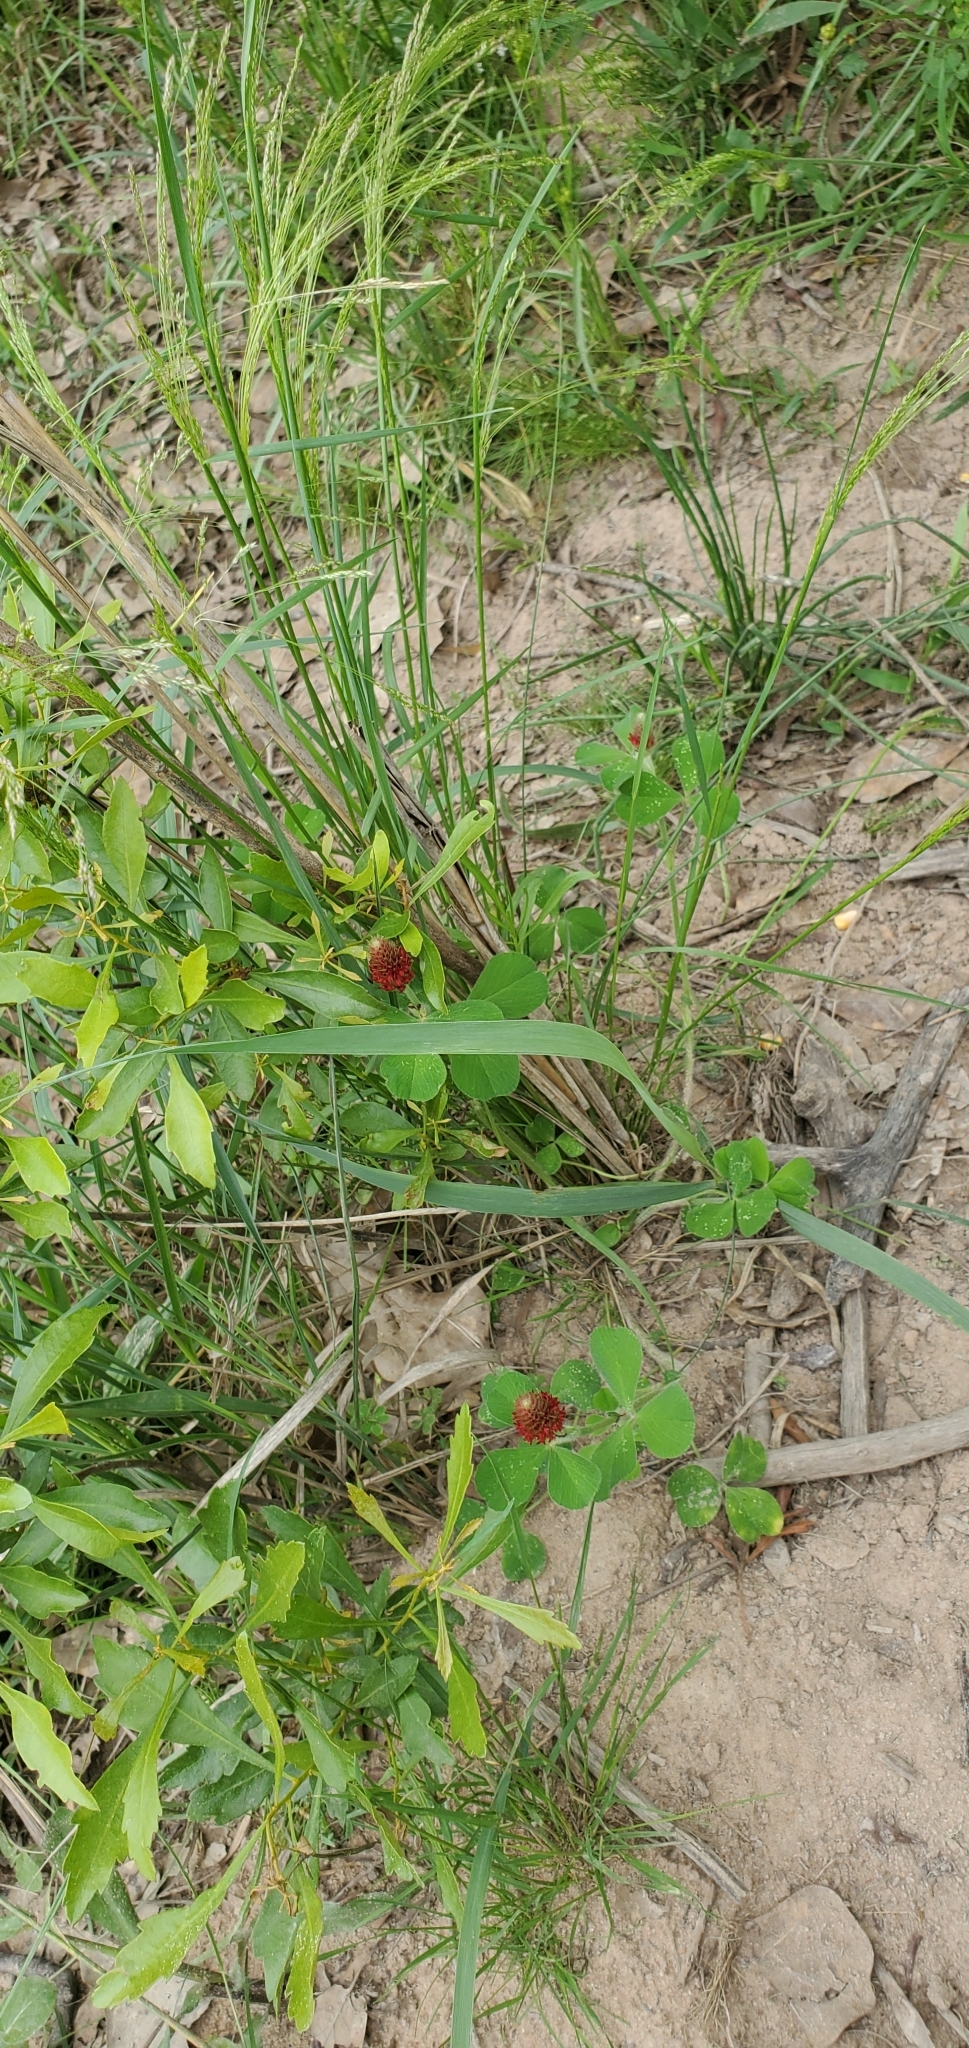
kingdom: Plantae
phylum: Tracheophyta
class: Magnoliopsida
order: Fabales
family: Fabaceae
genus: Trifolium
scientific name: Trifolium incarnatum
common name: Crimson clover
